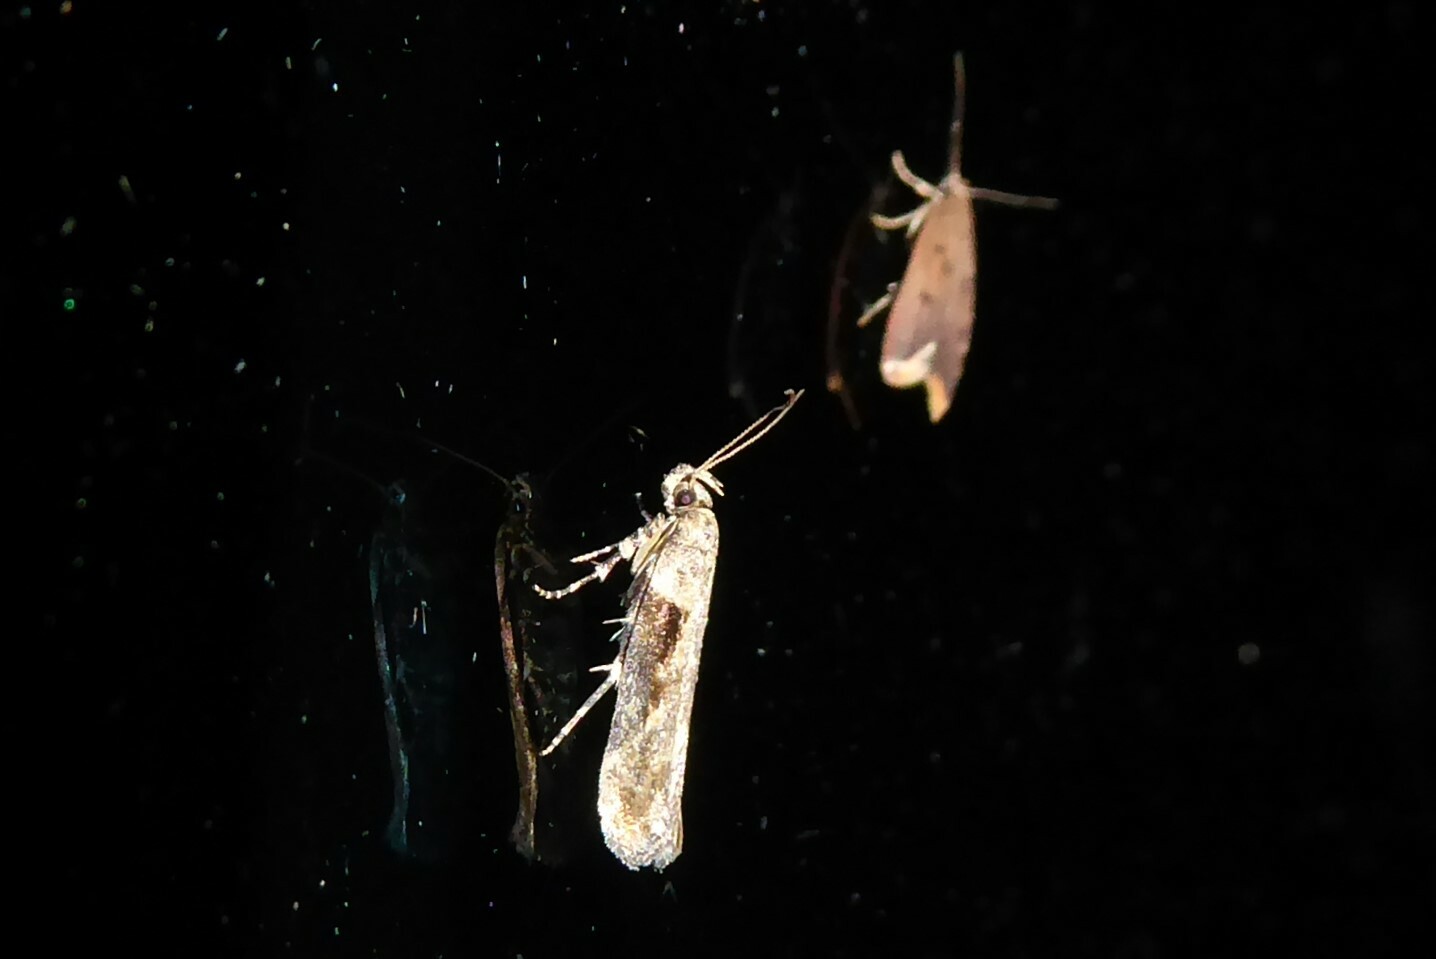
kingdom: Animalia
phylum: Arthropoda
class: Insecta
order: Lepidoptera
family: Gelechiidae
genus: Symmetrischema
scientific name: Symmetrischema tangolias
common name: Moth
